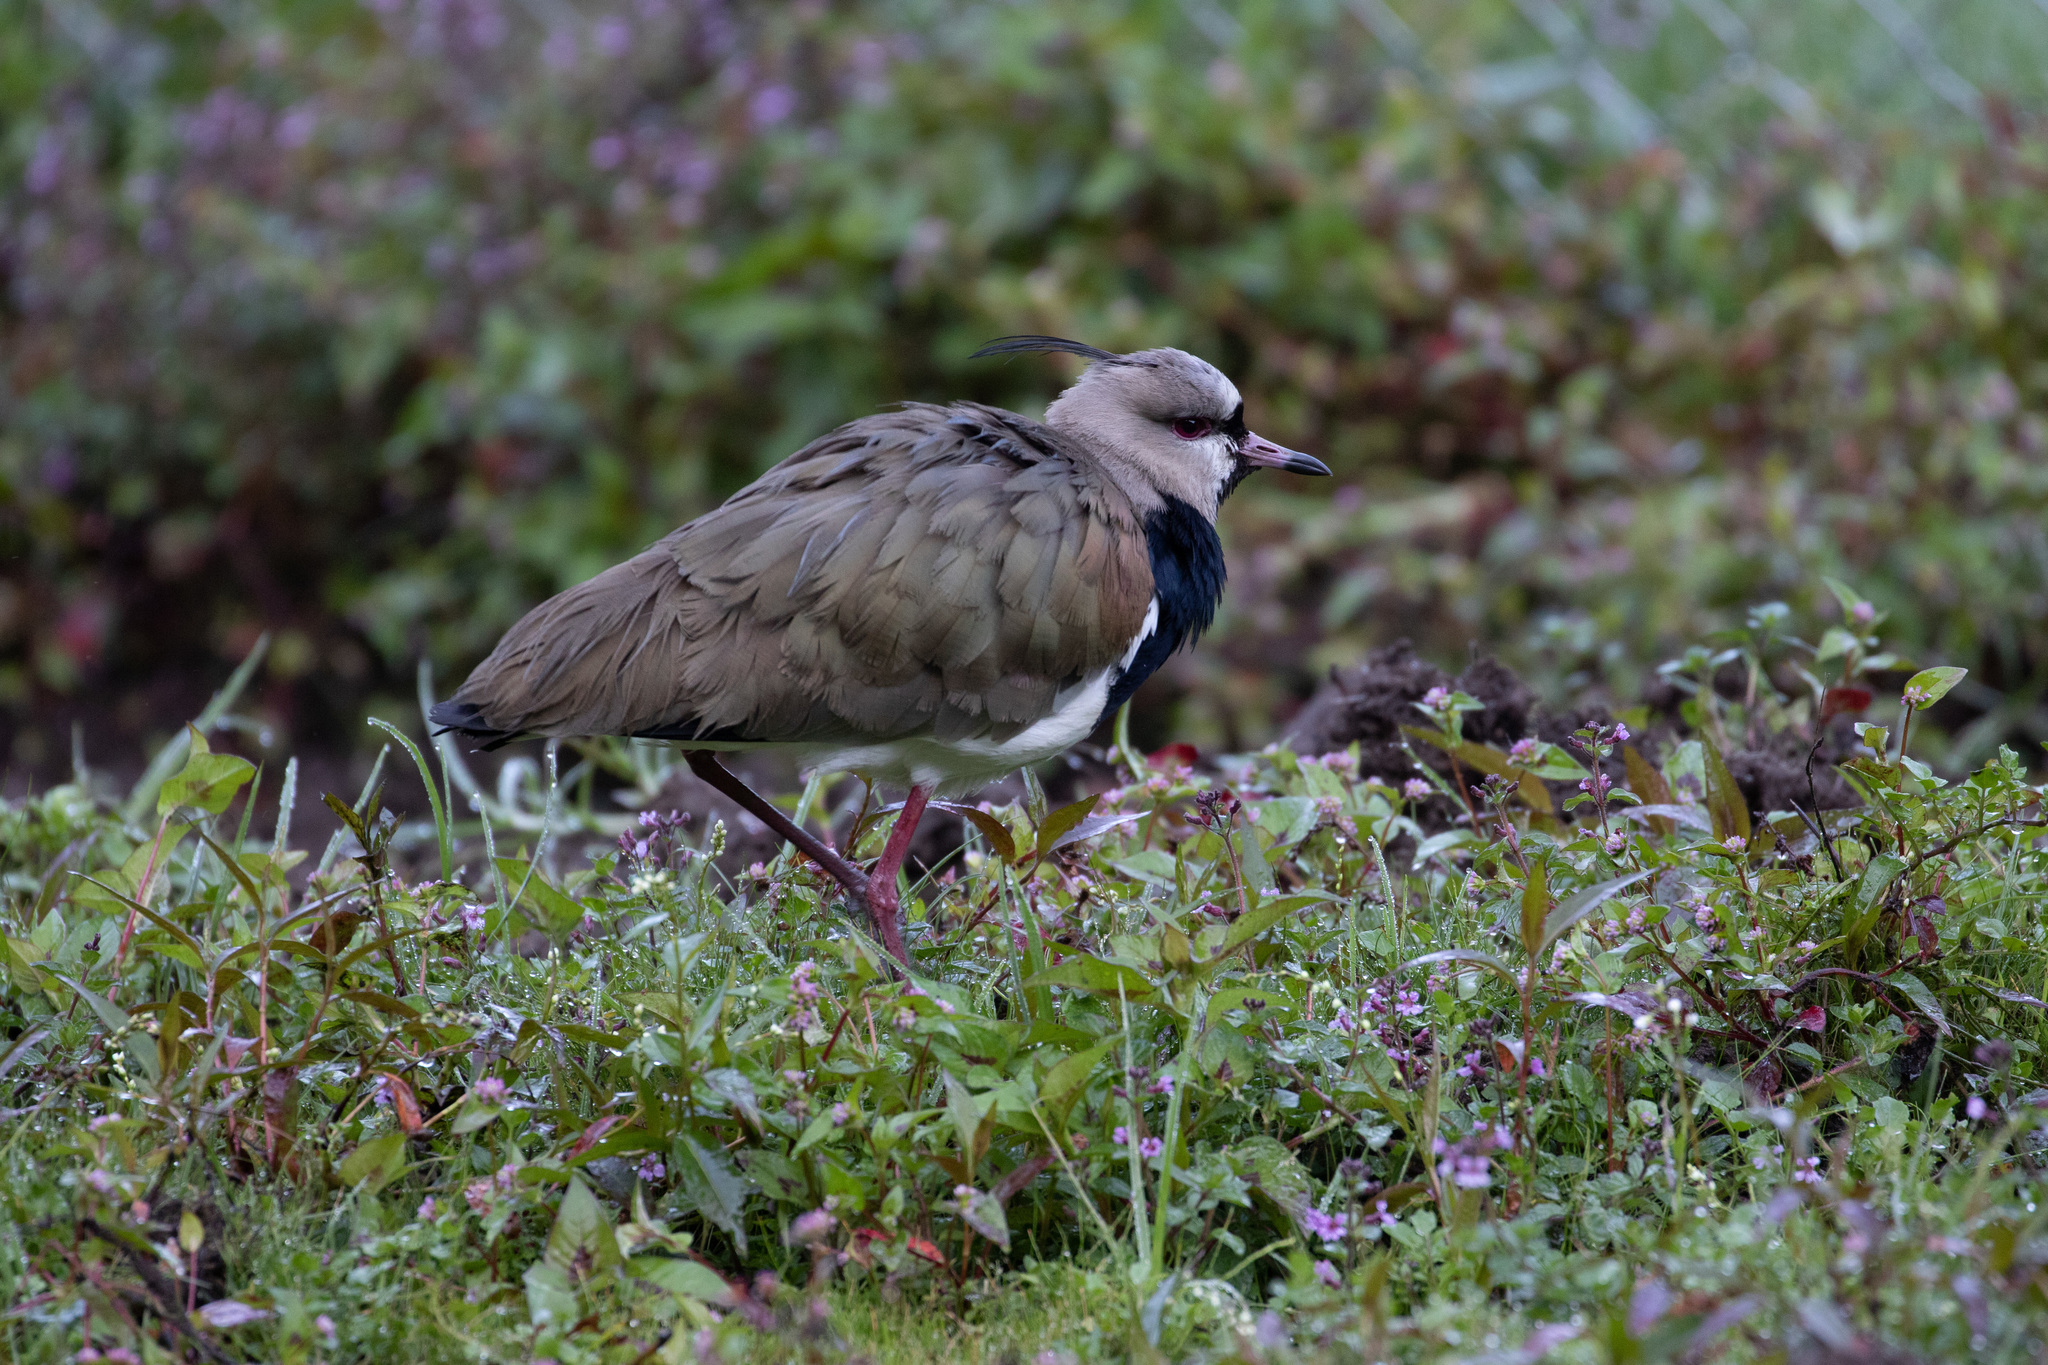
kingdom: Animalia
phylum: Chordata
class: Aves
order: Charadriiformes
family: Charadriidae
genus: Vanellus
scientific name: Vanellus chilensis
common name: Southern lapwing
